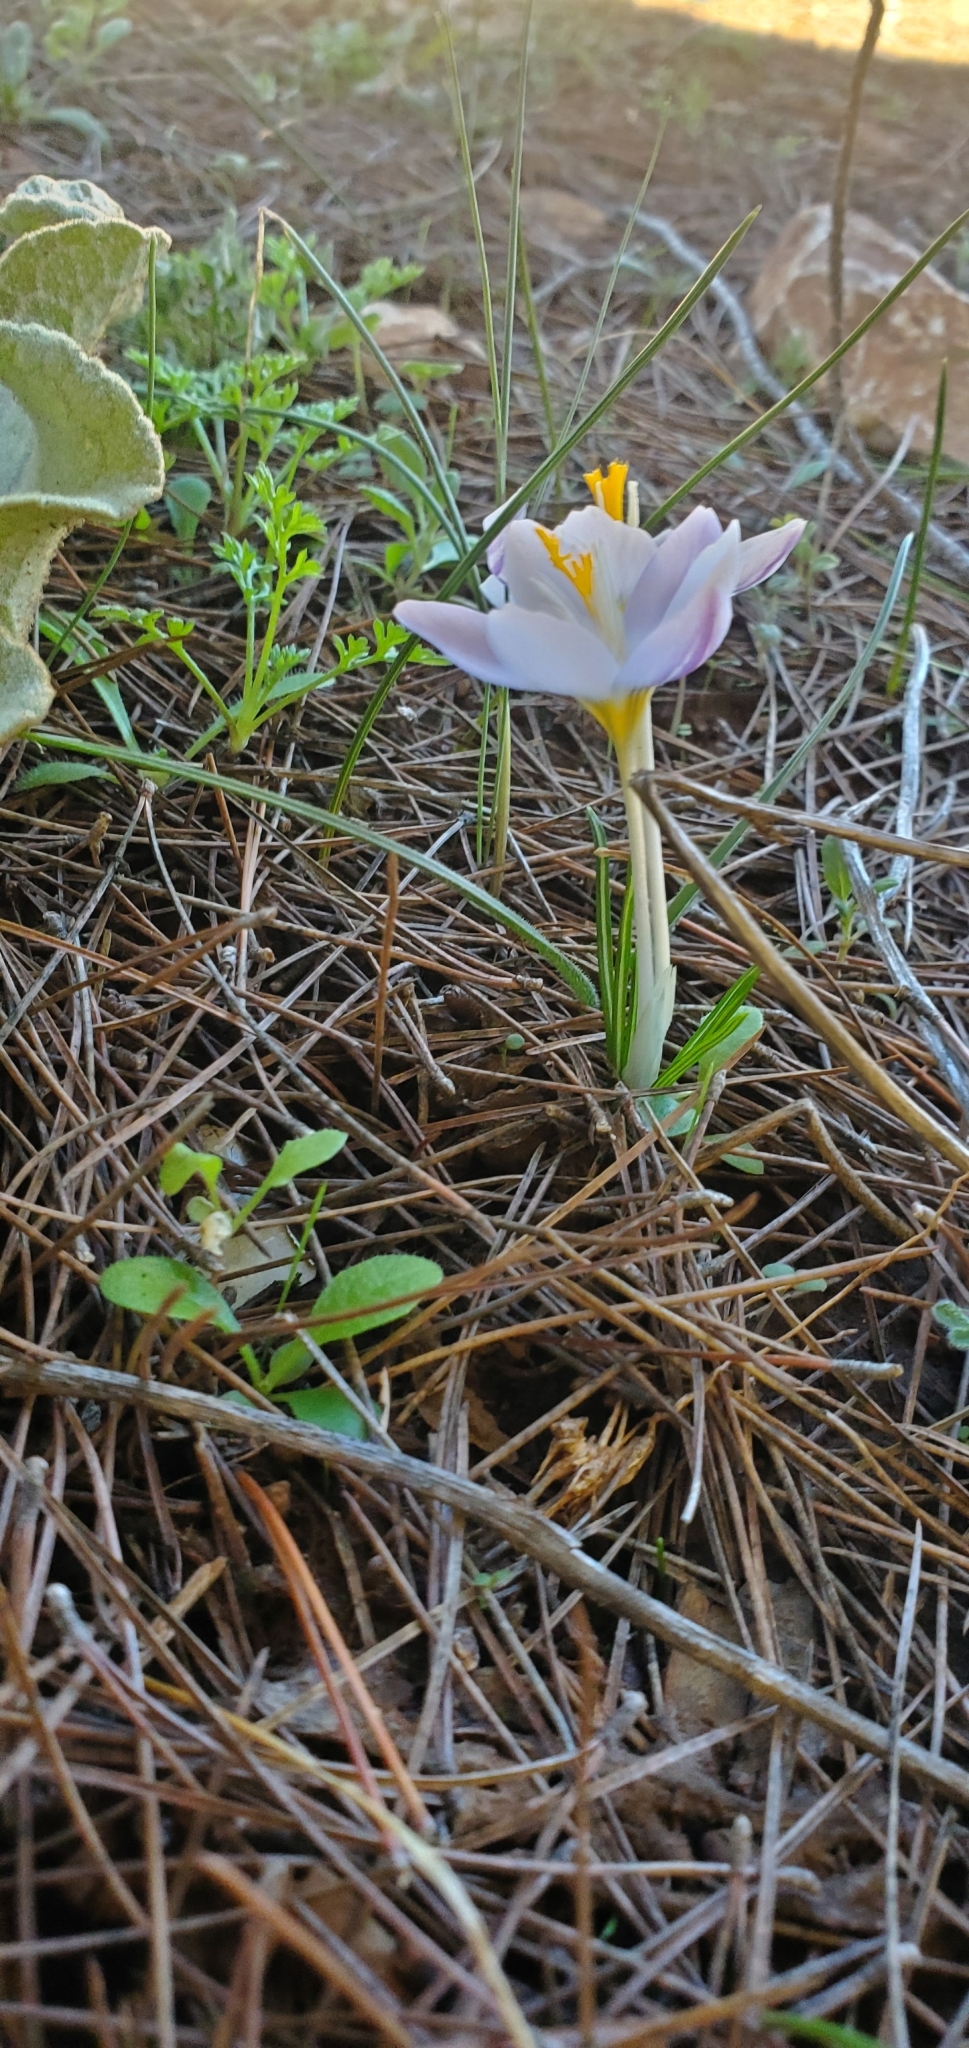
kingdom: Plantae
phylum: Tracheophyta
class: Liliopsida
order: Asparagales
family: Iridaceae
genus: Crocus
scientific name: Crocus laevigatus
